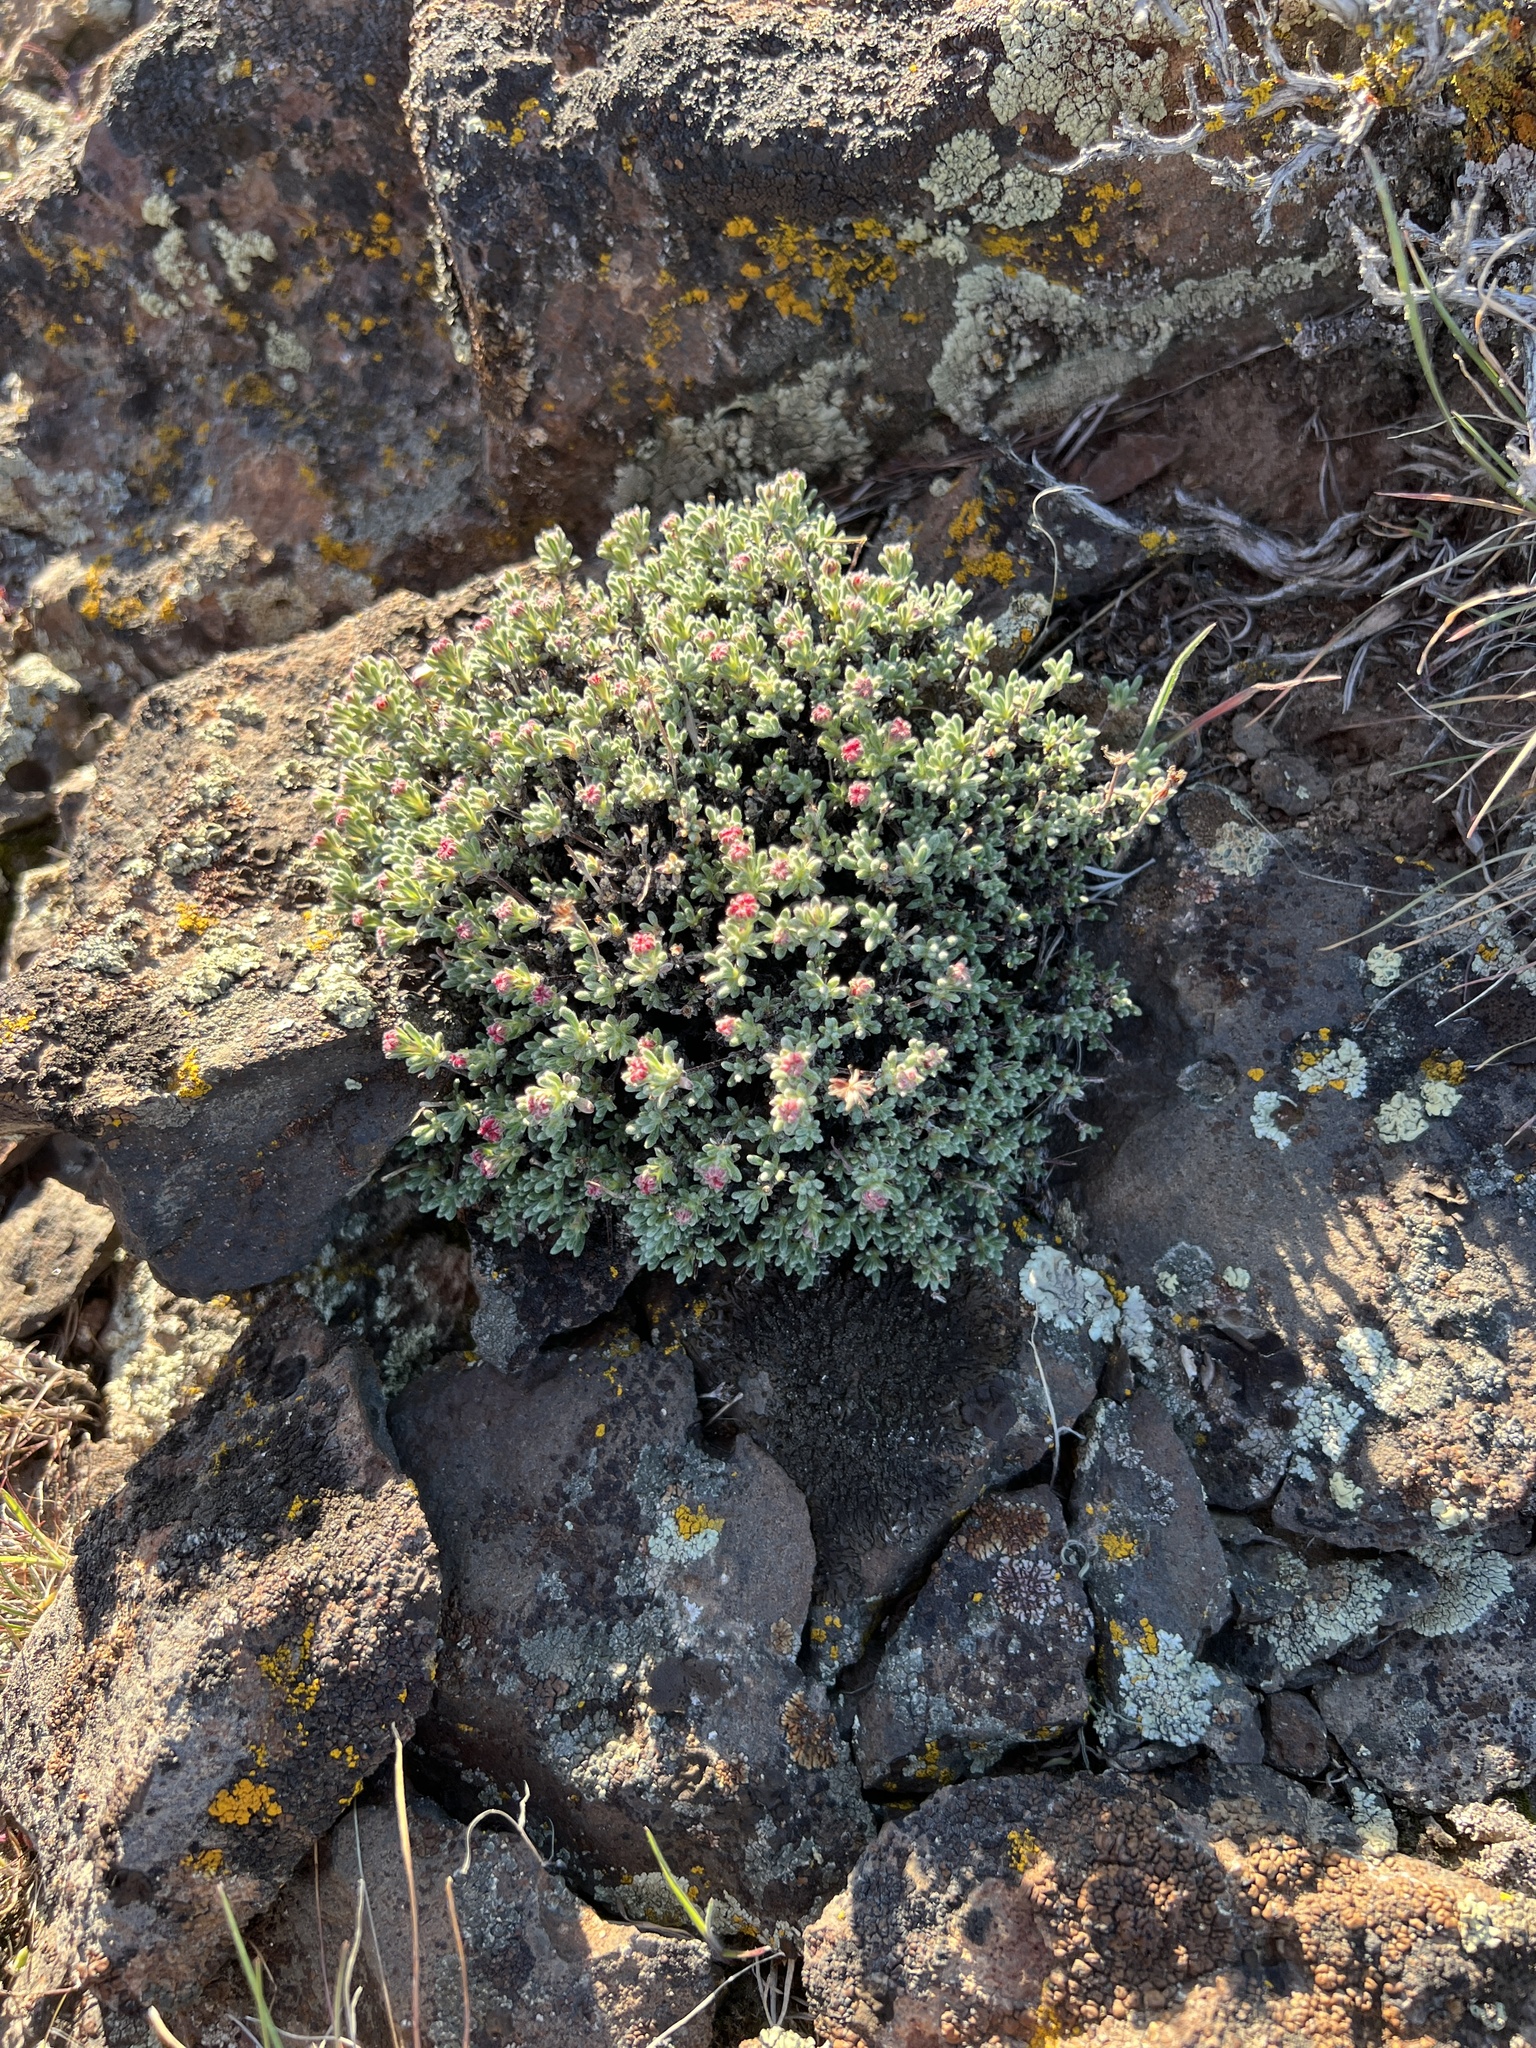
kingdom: Plantae
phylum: Tracheophyta
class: Magnoliopsida
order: Caryophyllales
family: Polygonaceae
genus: Eriogonum
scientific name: Eriogonum thymoides
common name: Thyme-leaf wild buckwheat
